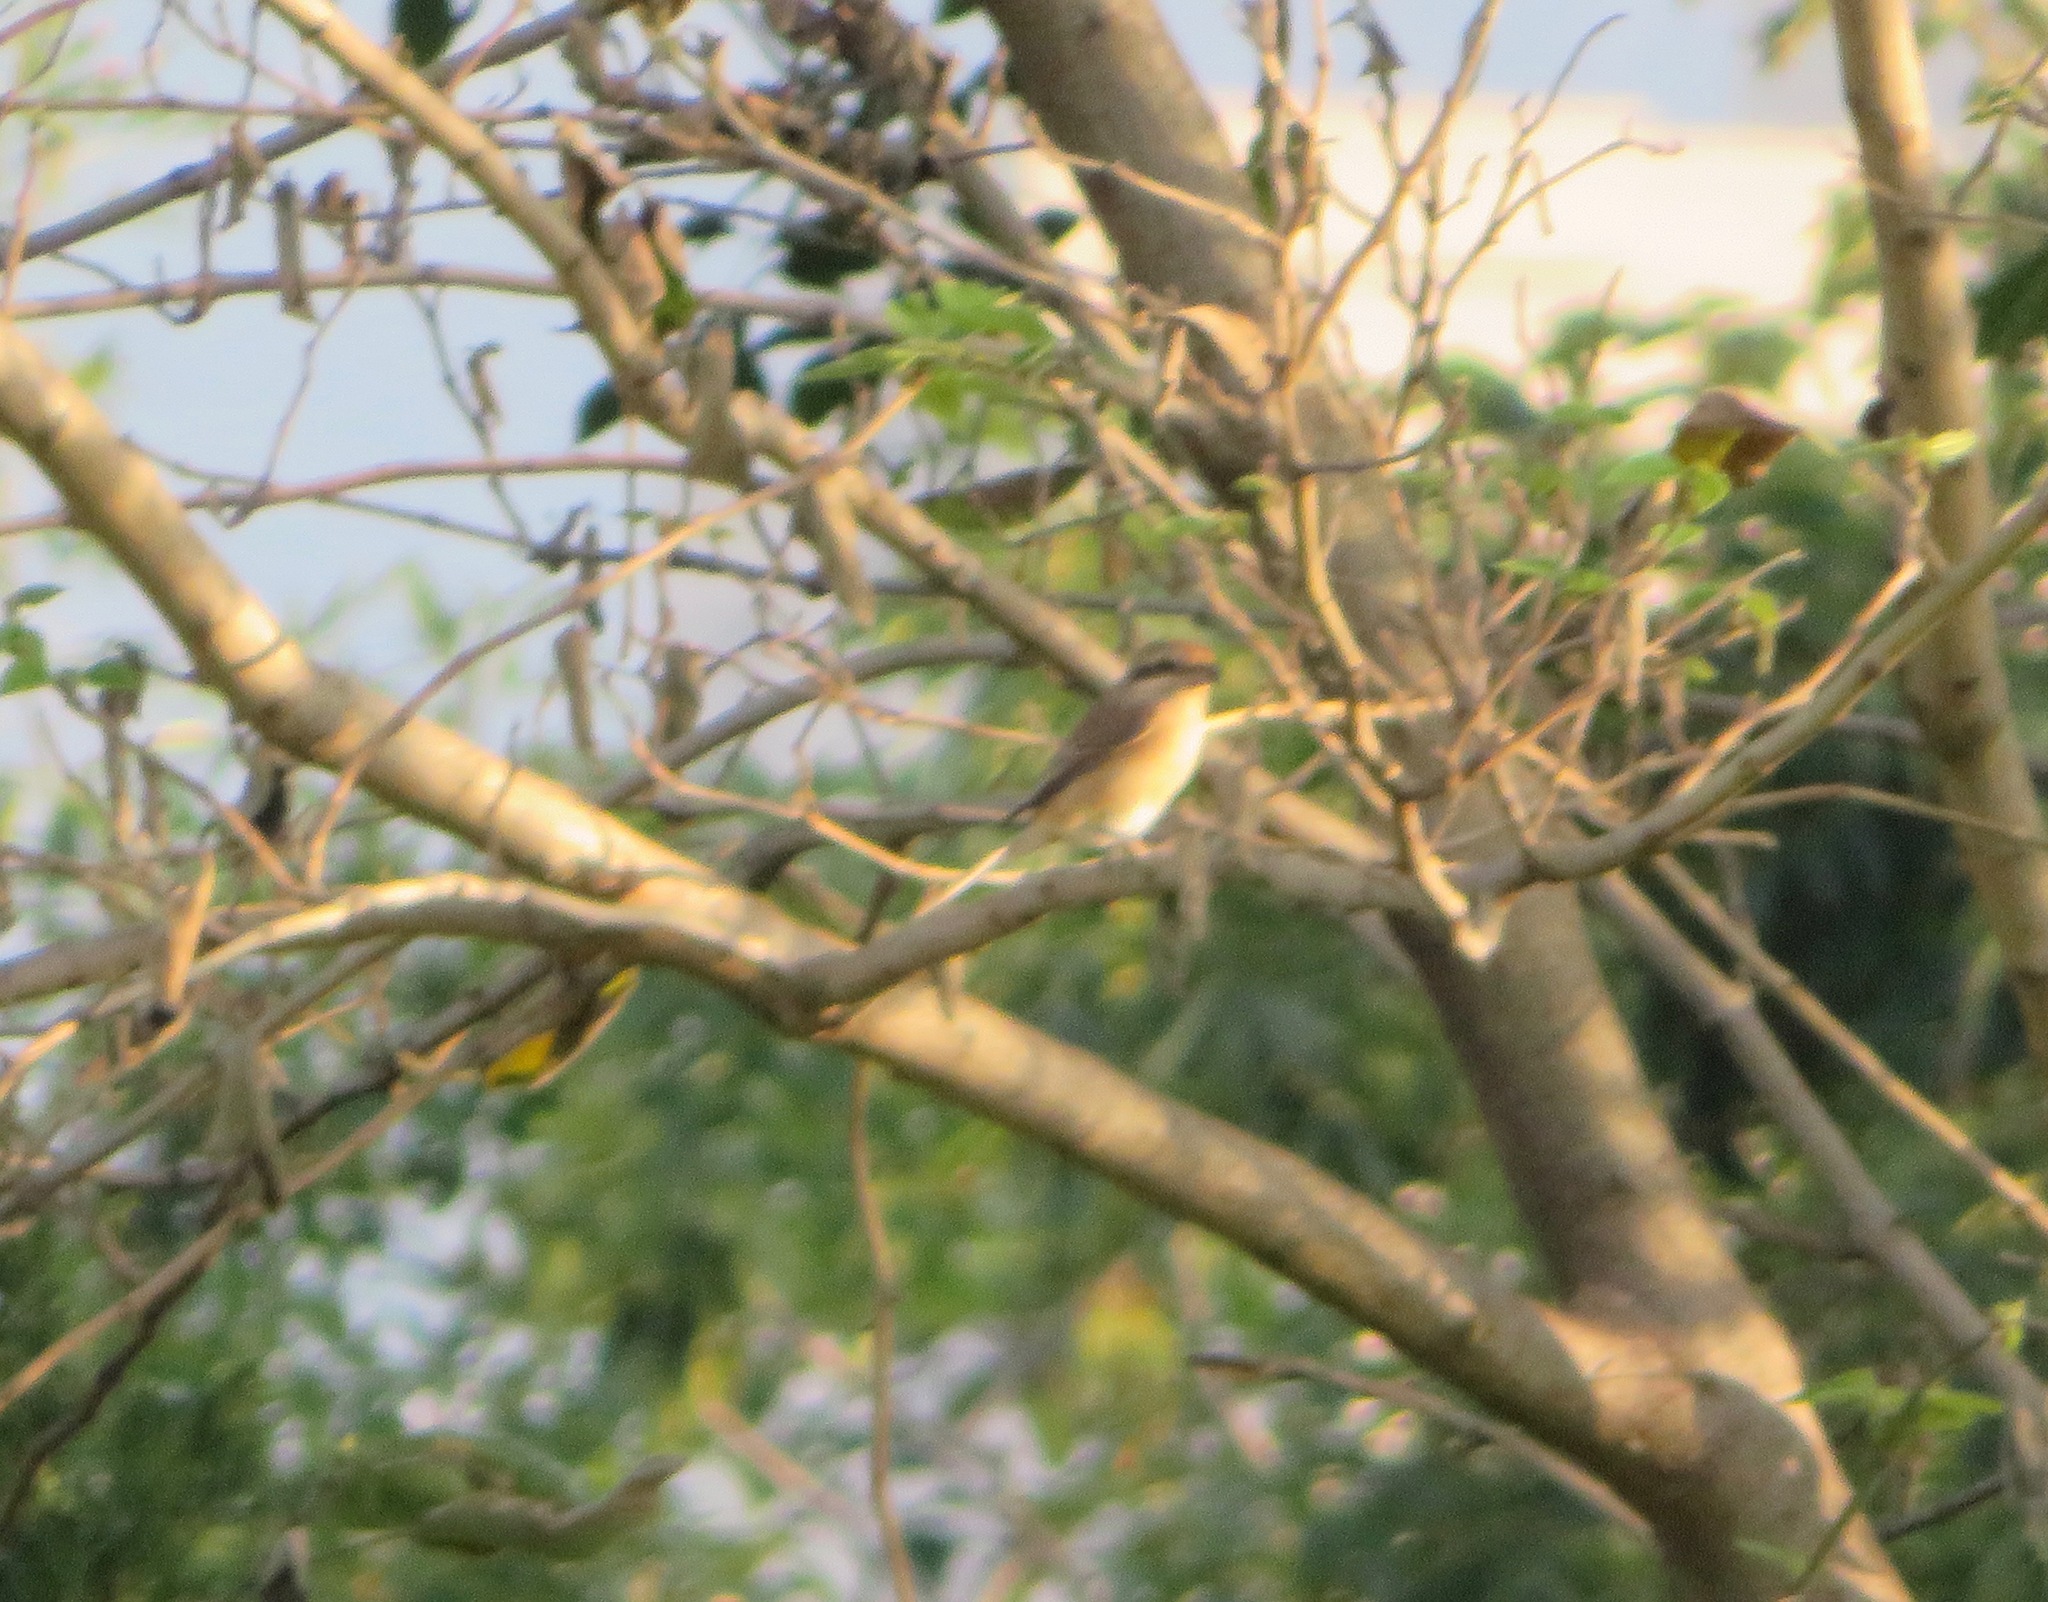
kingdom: Animalia
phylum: Chordata
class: Aves
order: Passeriformes
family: Laniidae
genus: Lanius
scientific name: Lanius cristatus
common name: Brown shrike
